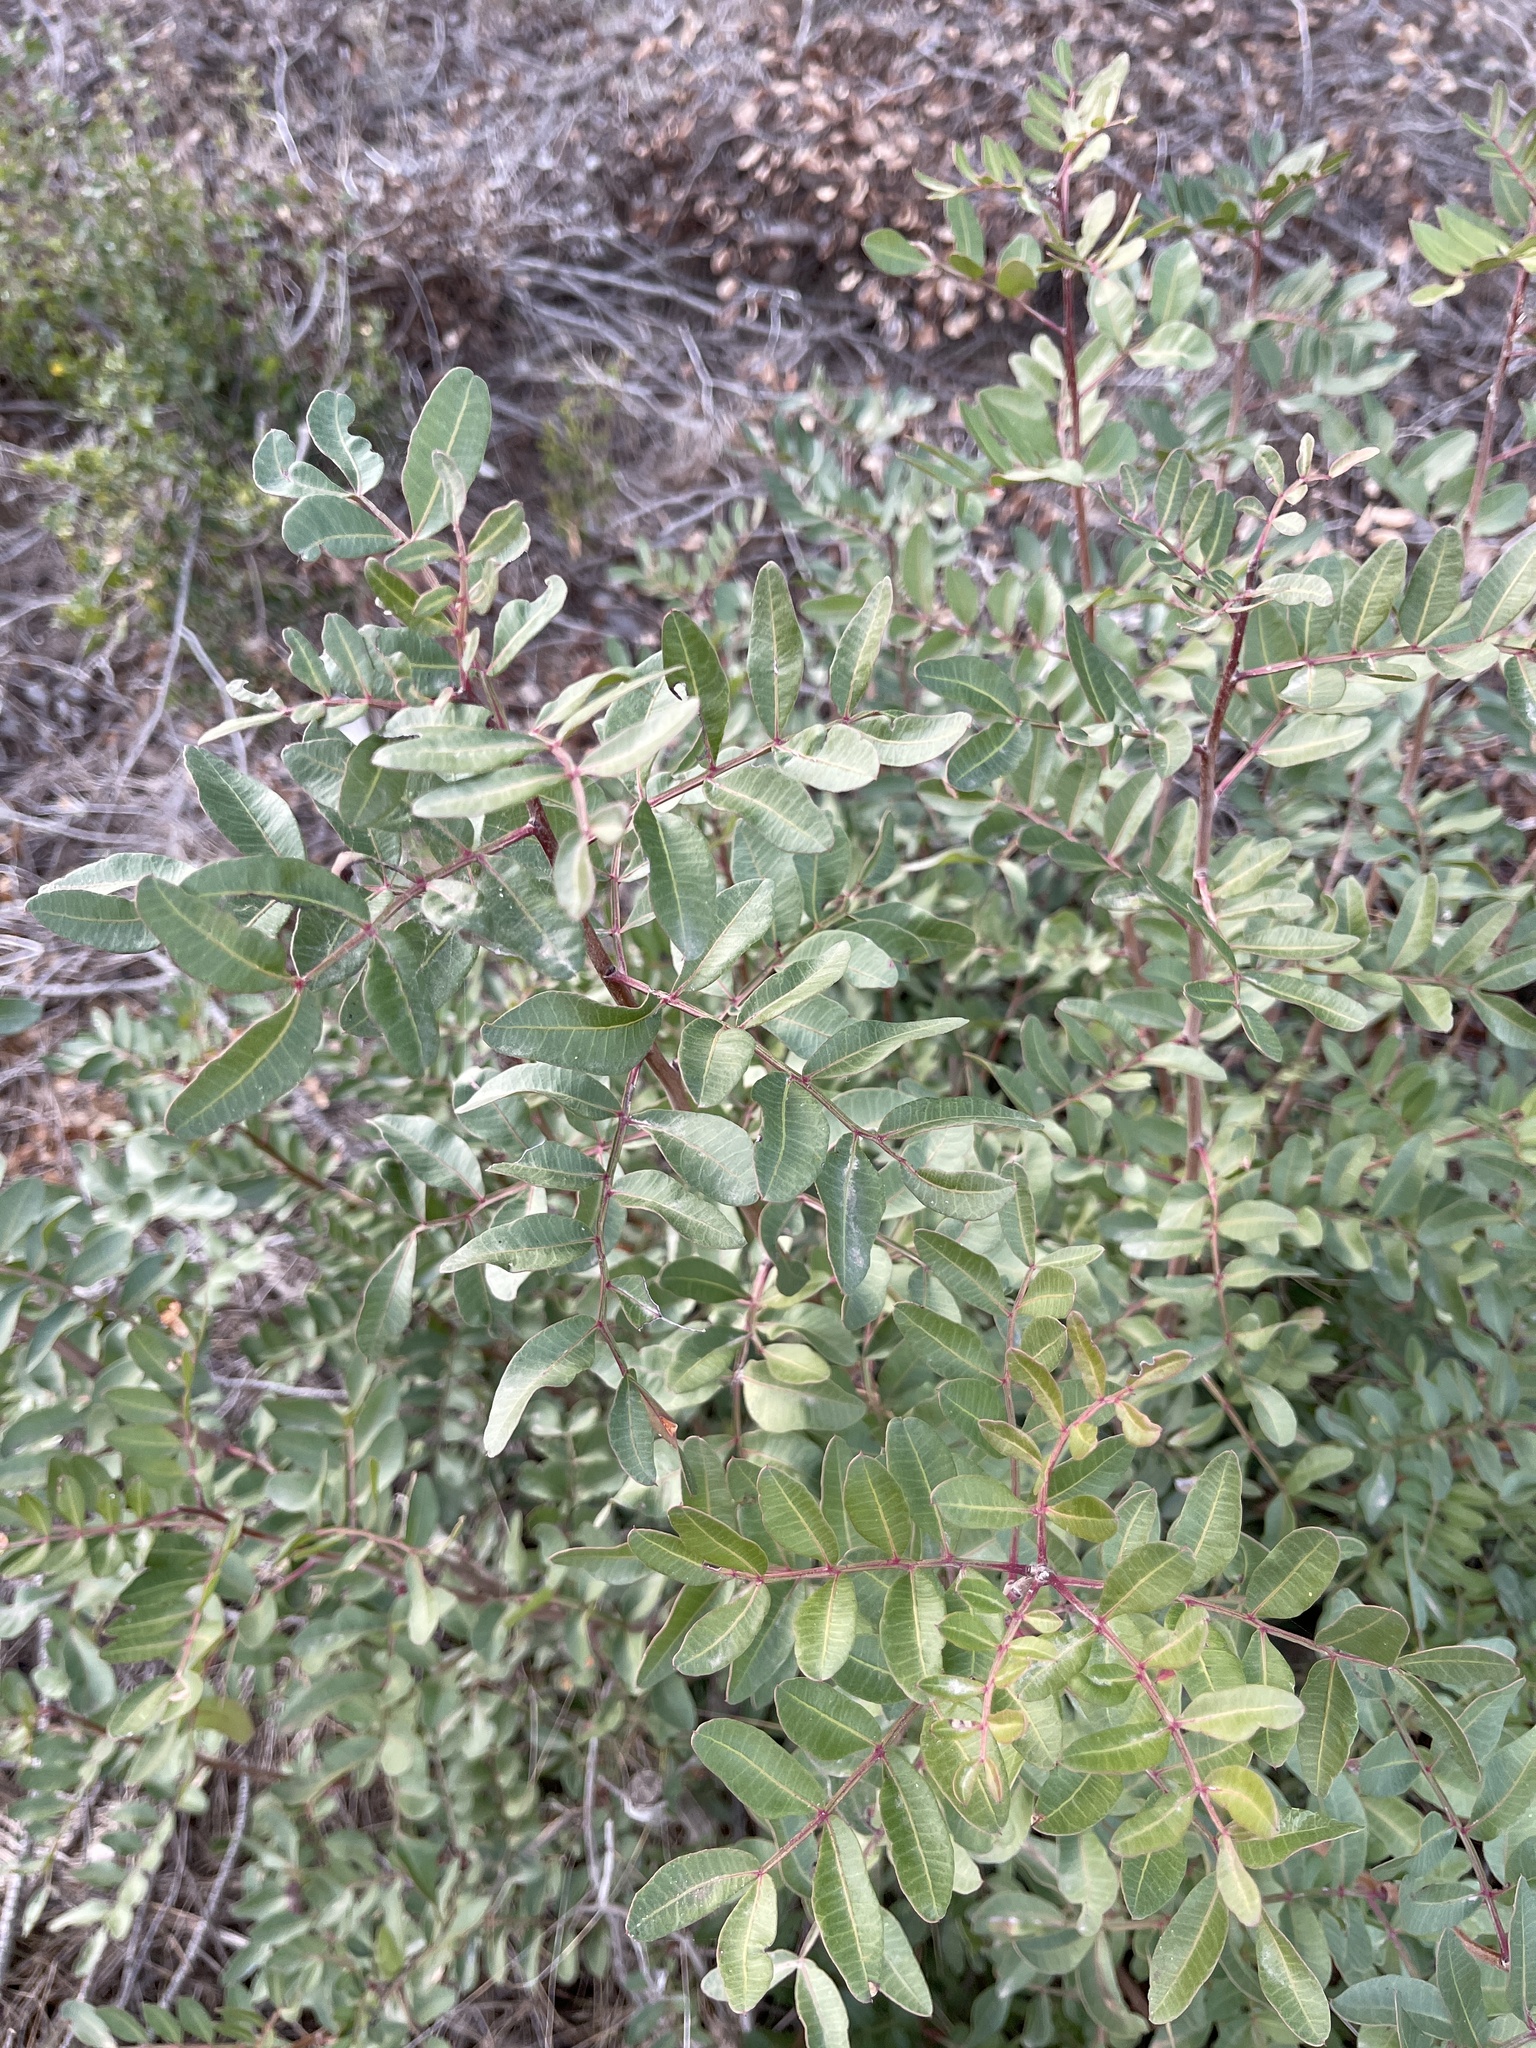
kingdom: Plantae
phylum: Tracheophyta
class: Magnoliopsida
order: Sapindales
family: Anacardiaceae
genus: Pistacia
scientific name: Pistacia lentiscus
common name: Lentisk
